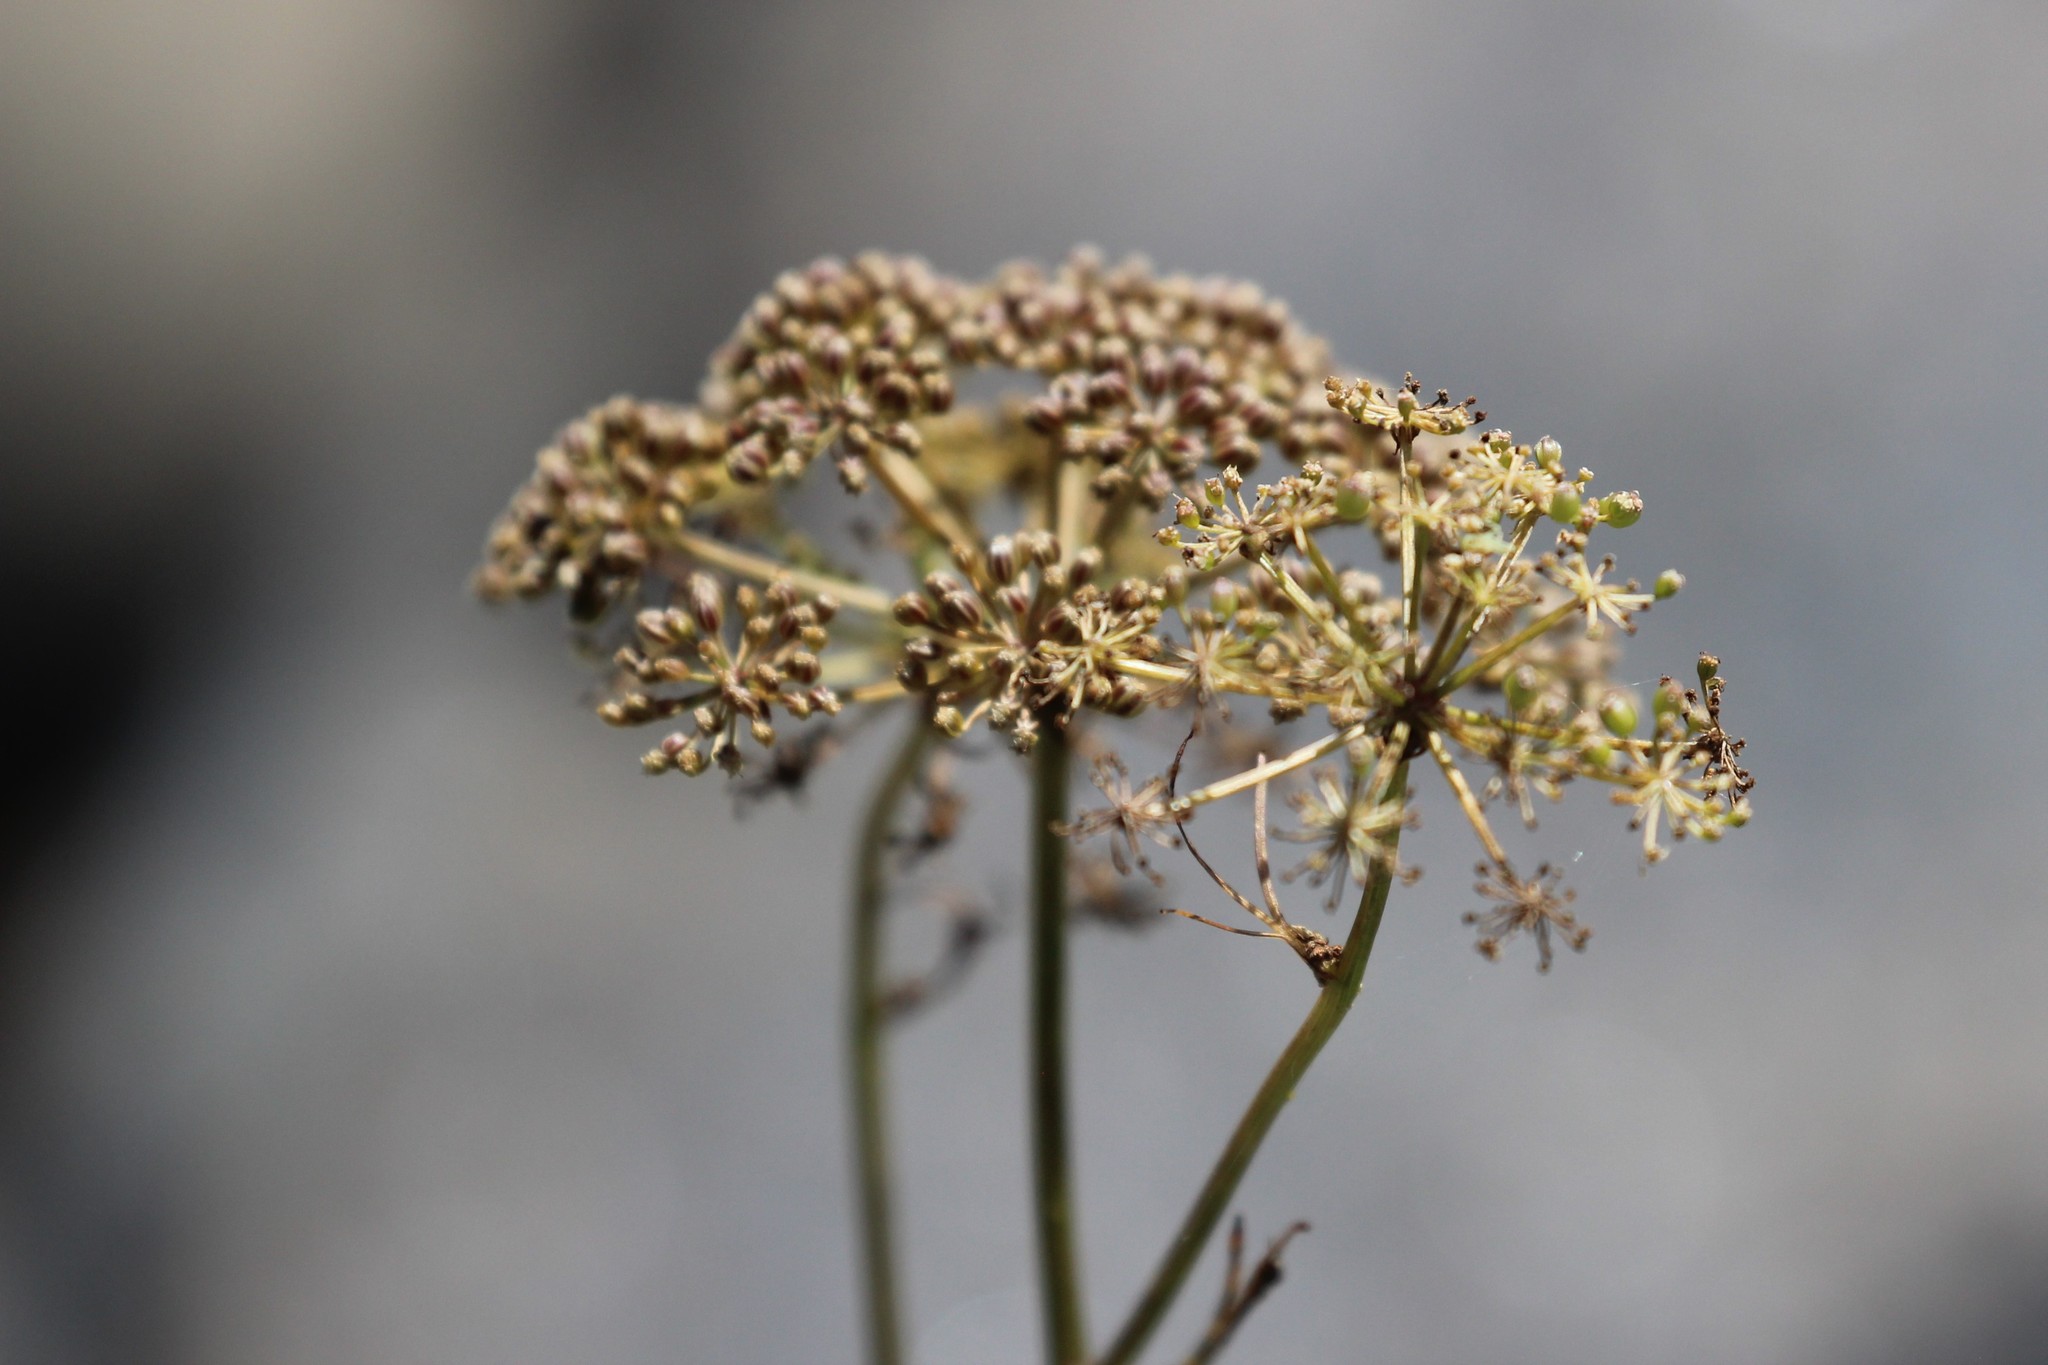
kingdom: Plantae
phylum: Tracheophyta
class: Magnoliopsida
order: Apiales
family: Apiaceae
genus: Sium
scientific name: Sium suave
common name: Hemlock water-parsnip
